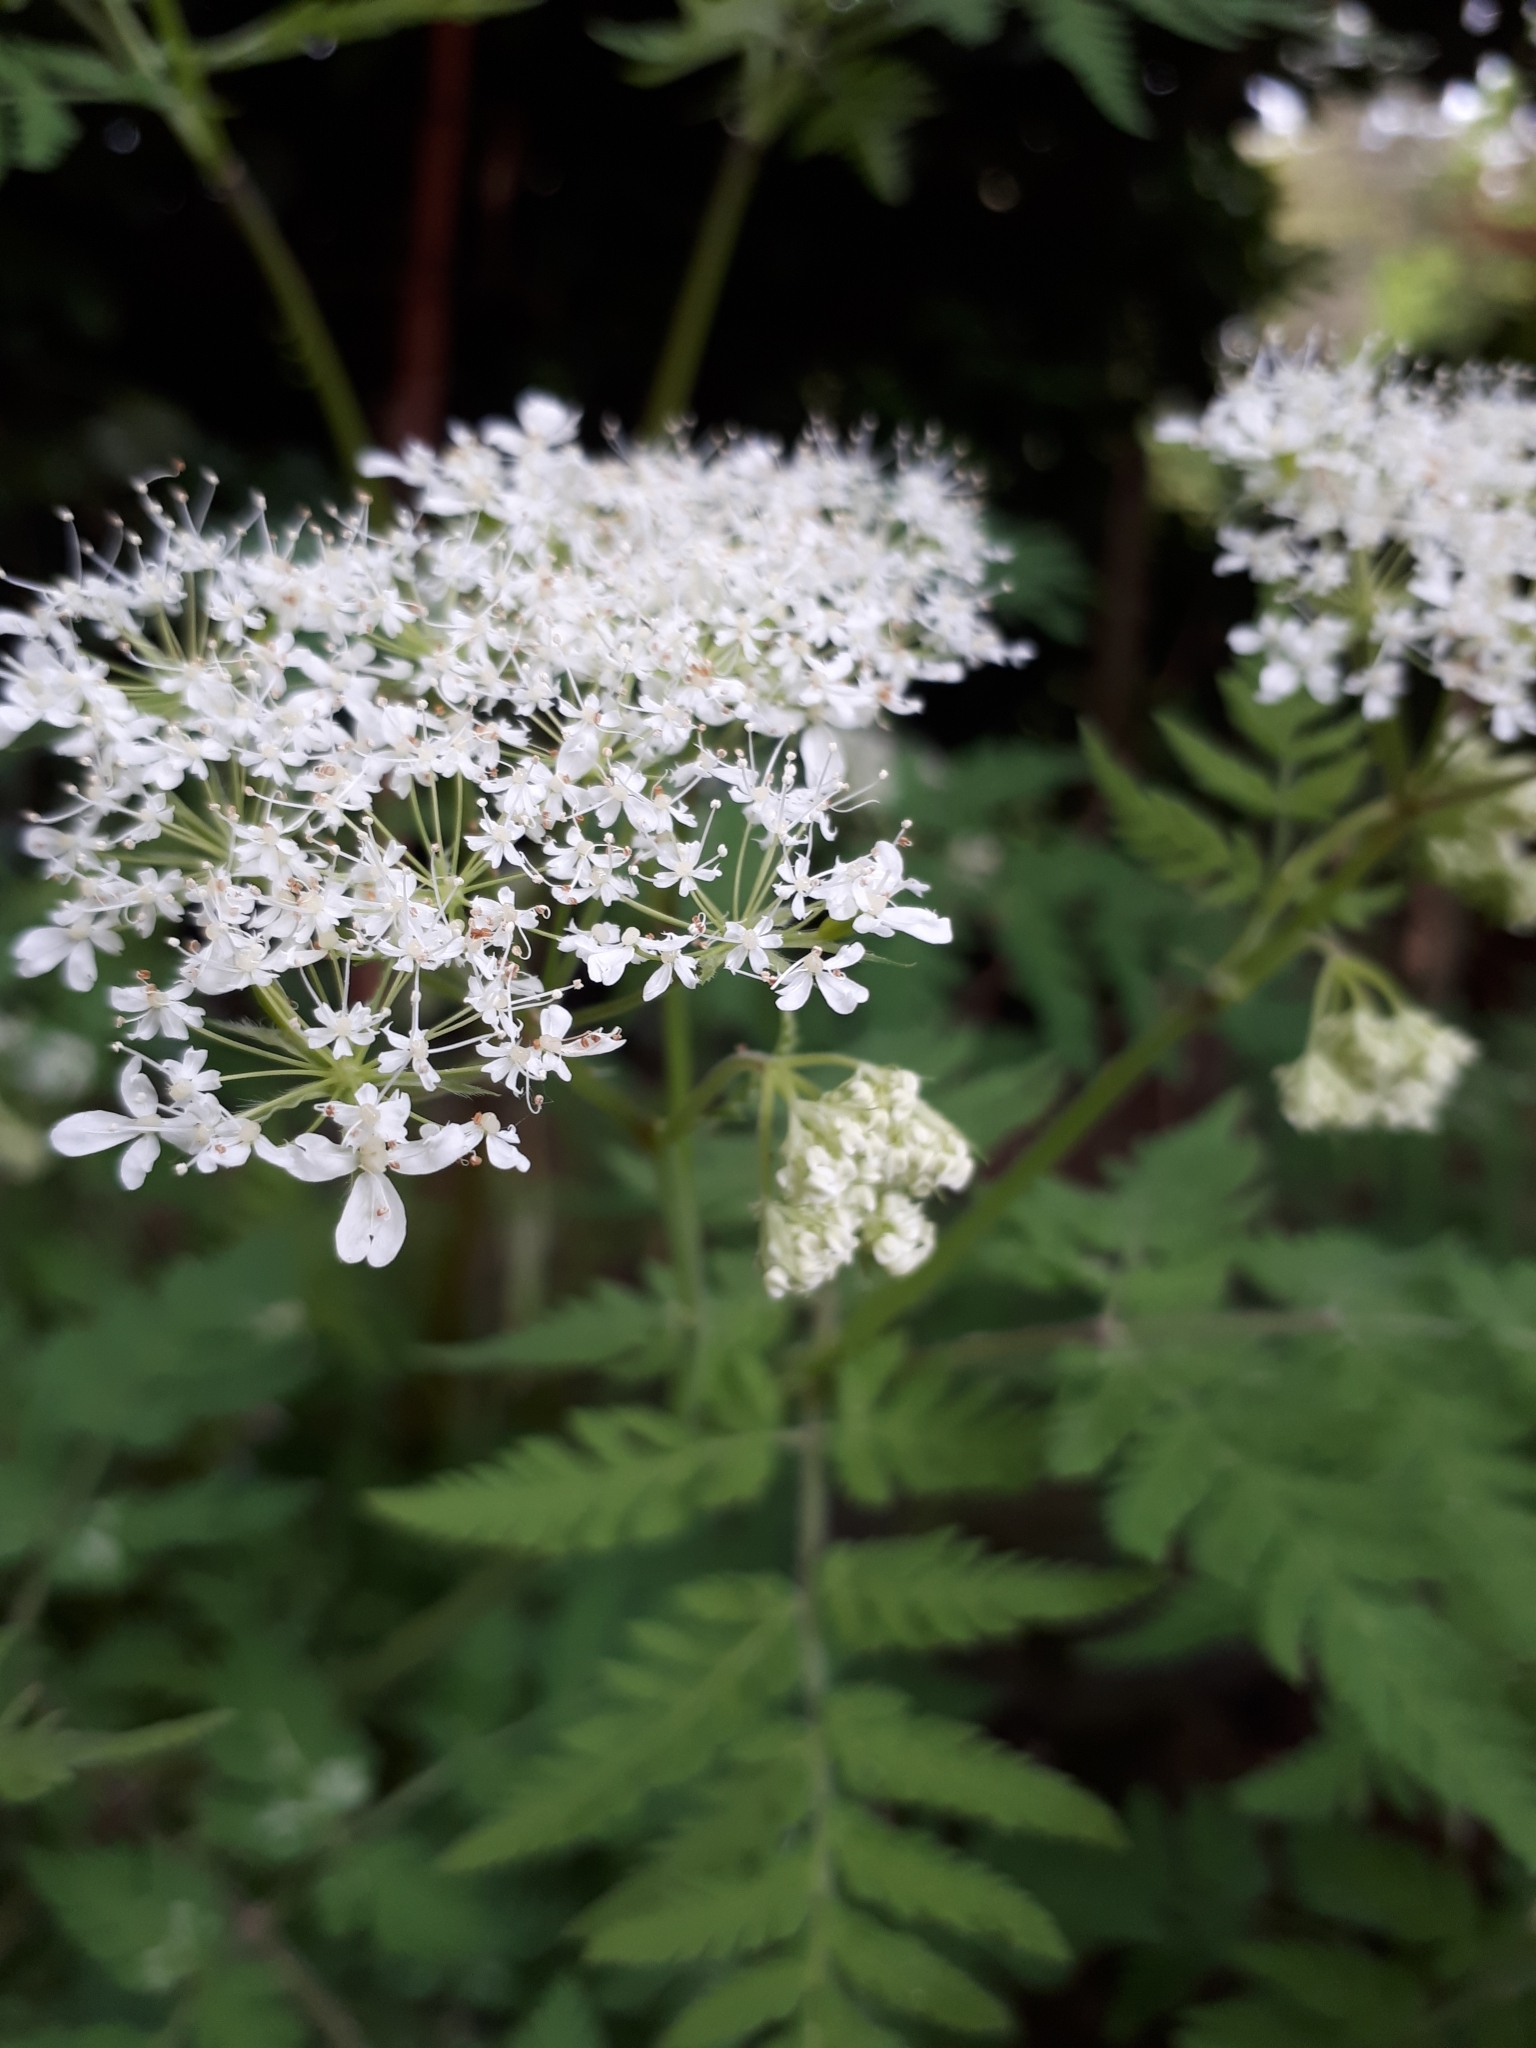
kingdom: Plantae
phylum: Tracheophyta
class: Magnoliopsida
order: Apiales
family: Apiaceae
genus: Anthriscus
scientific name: Anthriscus sylvestris
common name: Cow parsley
